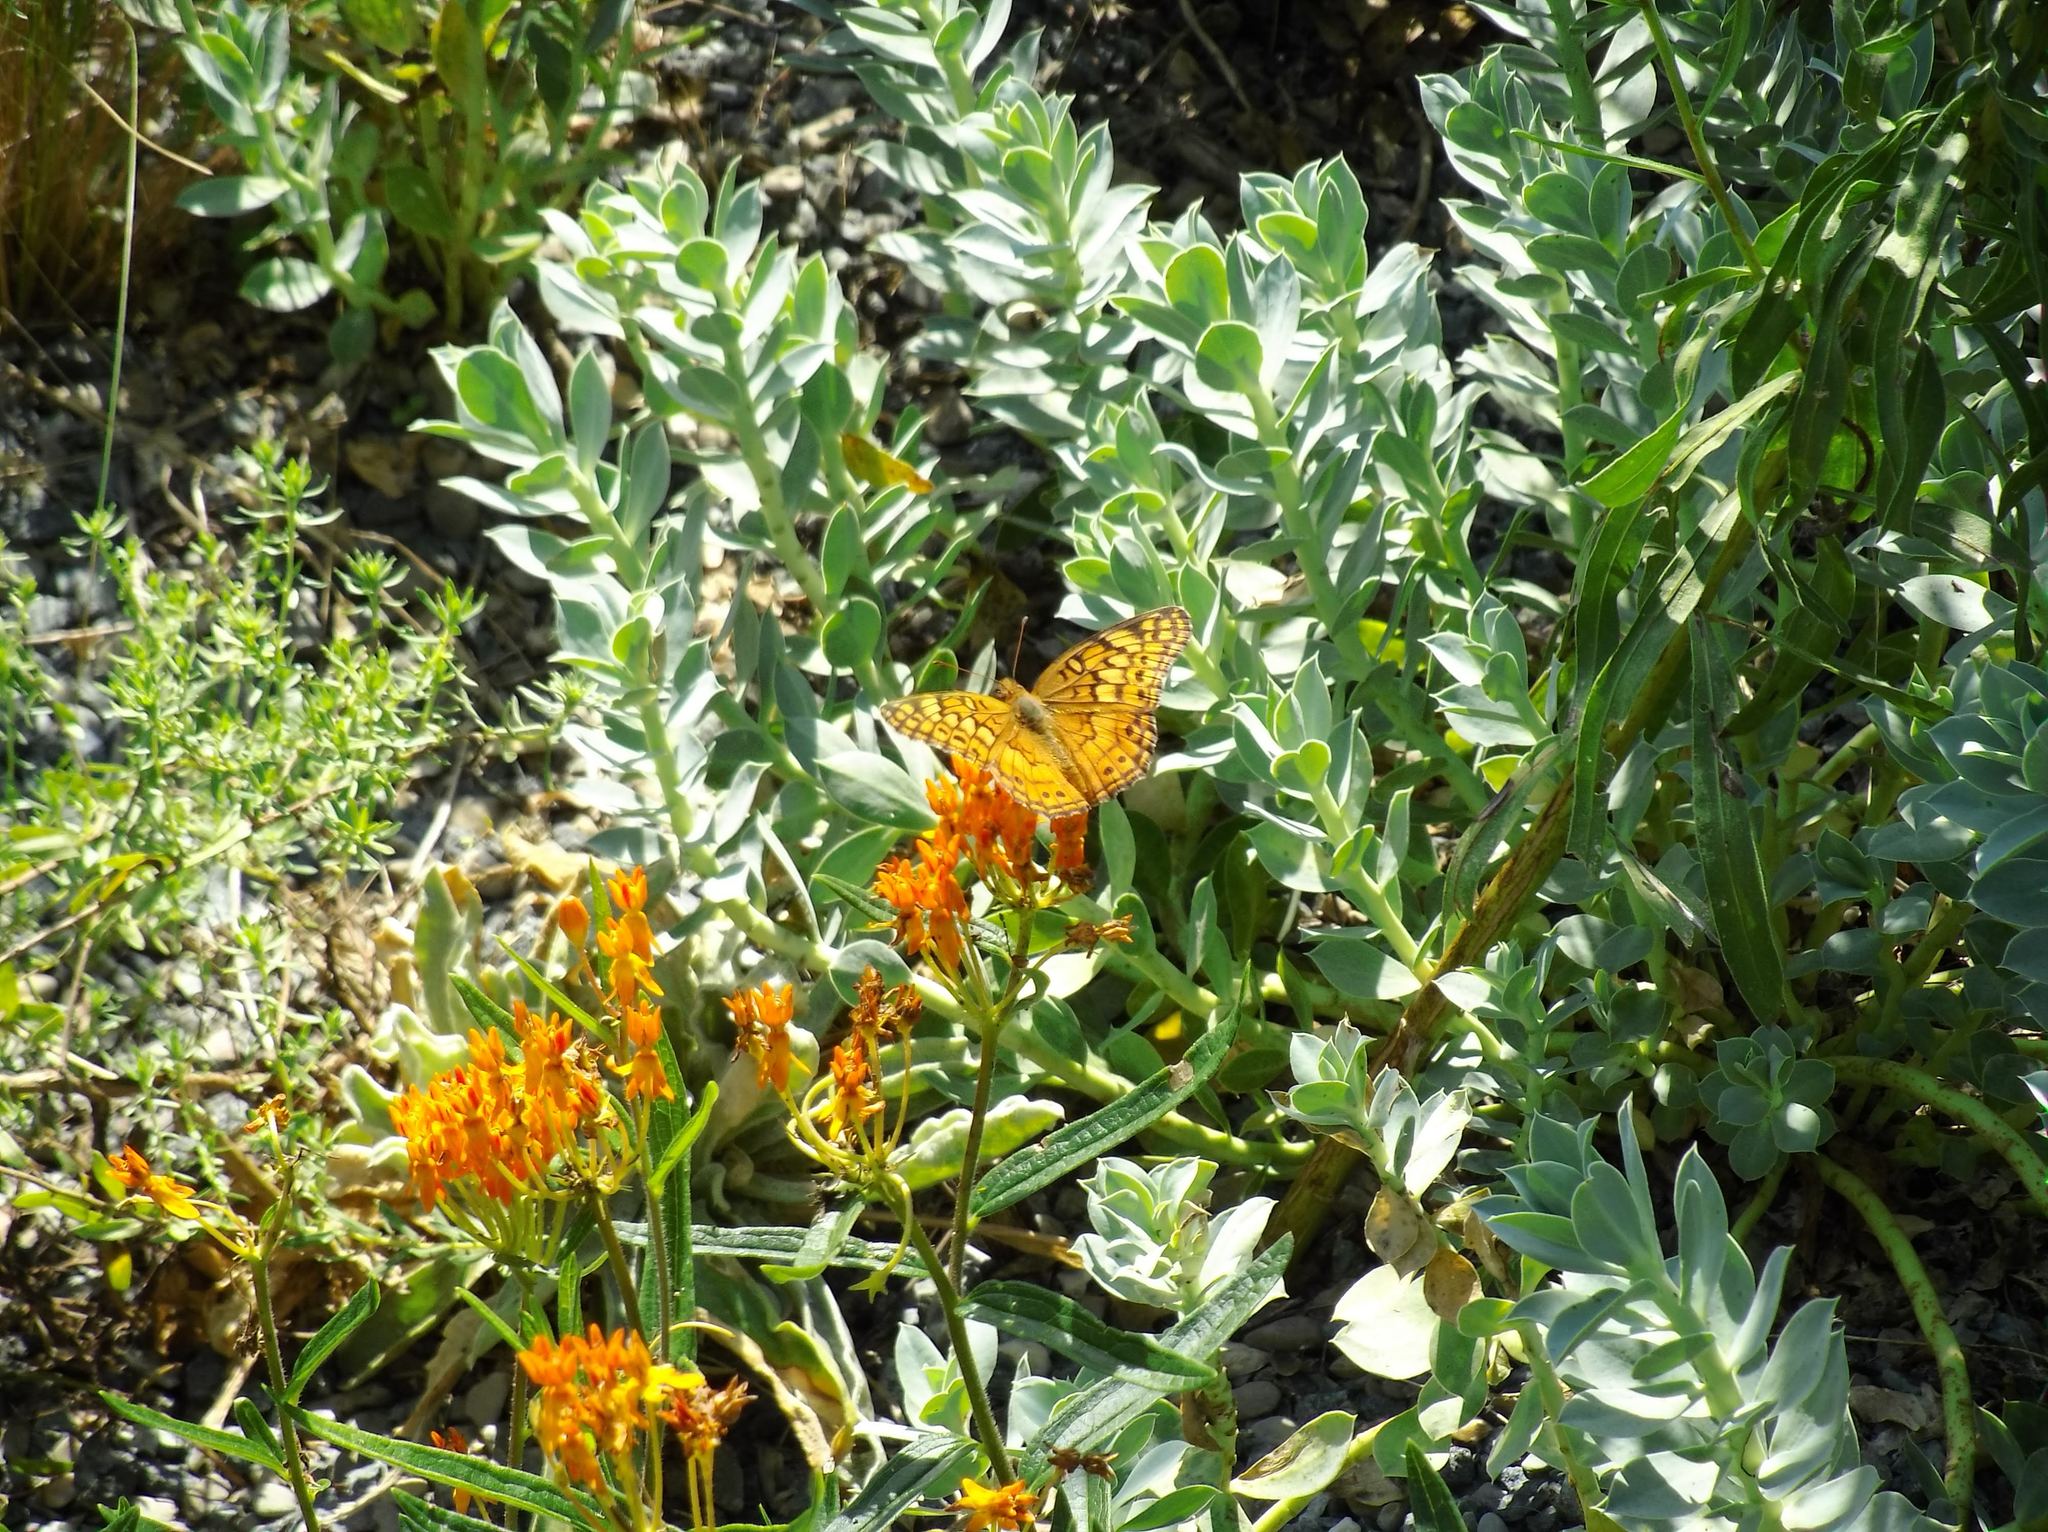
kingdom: Animalia
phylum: Arthropoda
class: Insecta
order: Lepidoptera
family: Nymphalidae
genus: Euptoieta
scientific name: Euptoieta claudia
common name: Variegated fritillary
